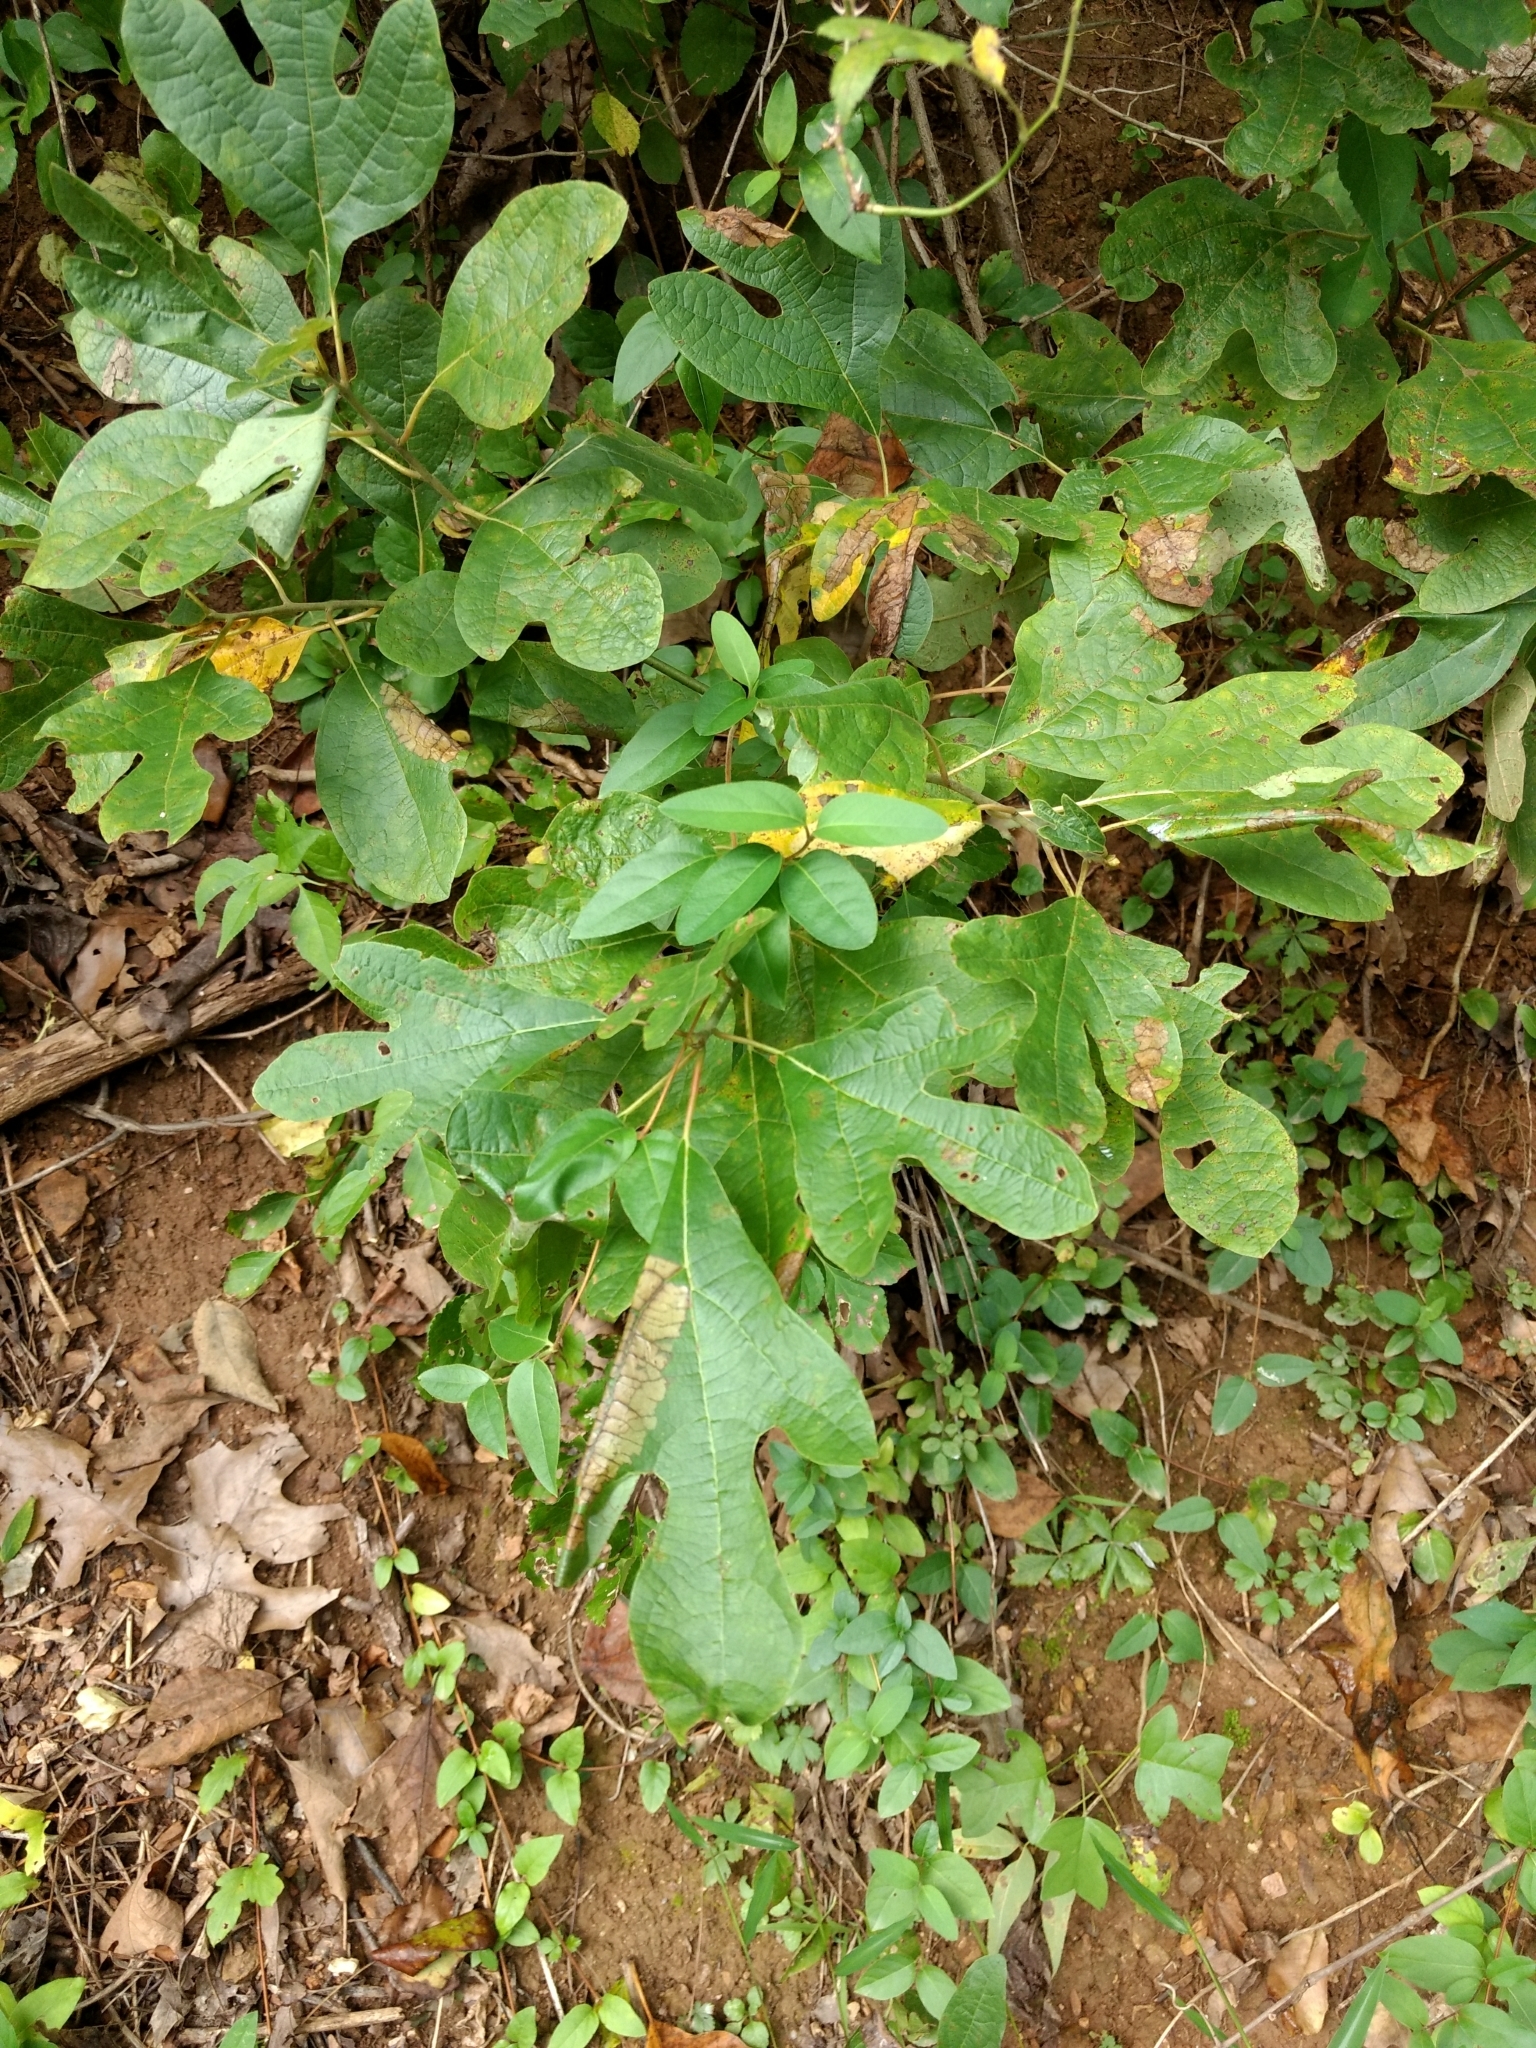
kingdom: Plantae
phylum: Tracheophyta
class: Magnoliopsida
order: Laurales
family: Lauraceae
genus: Sassafras
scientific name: Sassafras albidum
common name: Sassafras
